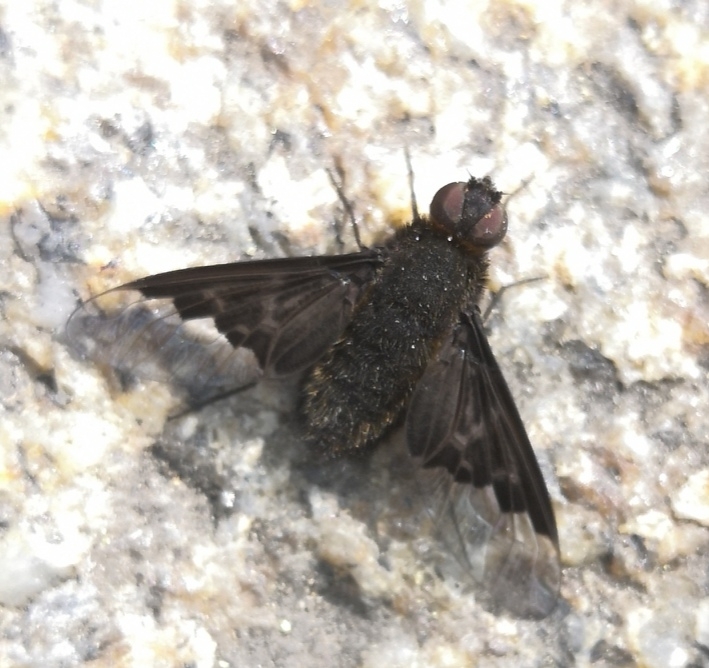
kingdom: Animalia
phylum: Arthropoda
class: Insecta
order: Diptera
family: Bombyliidae
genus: Hemipenthes
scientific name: Hemipenthes morio
